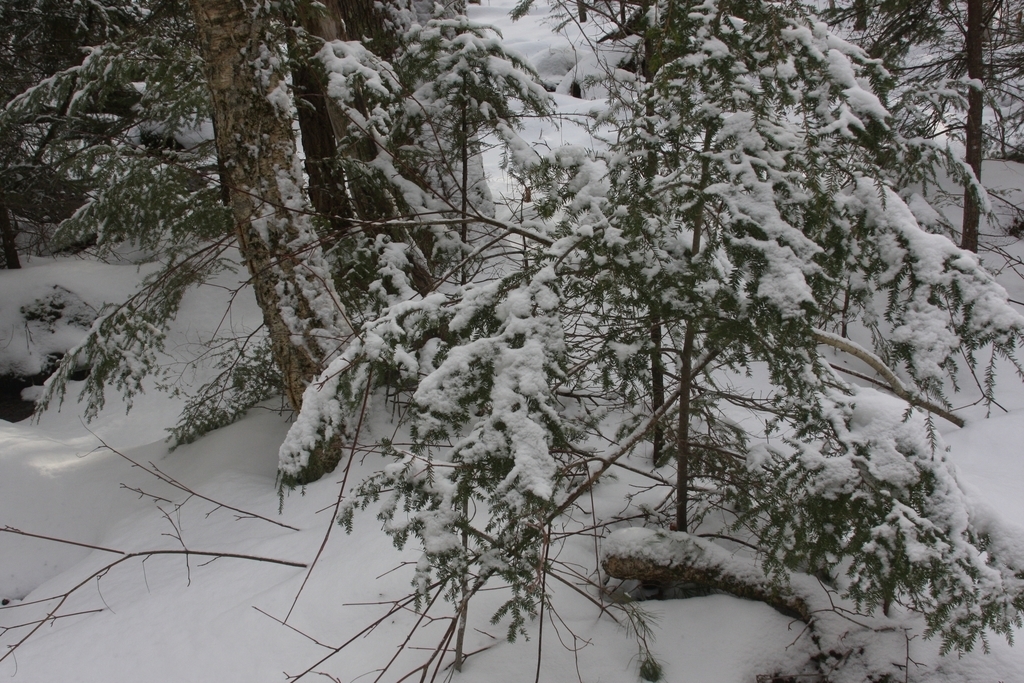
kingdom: Plantae
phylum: Tracheophyta
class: Pinopsida
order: Pinales
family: Pinaceae
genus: Tsuga
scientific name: Tsuga canadensis
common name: Eastern hemlock
